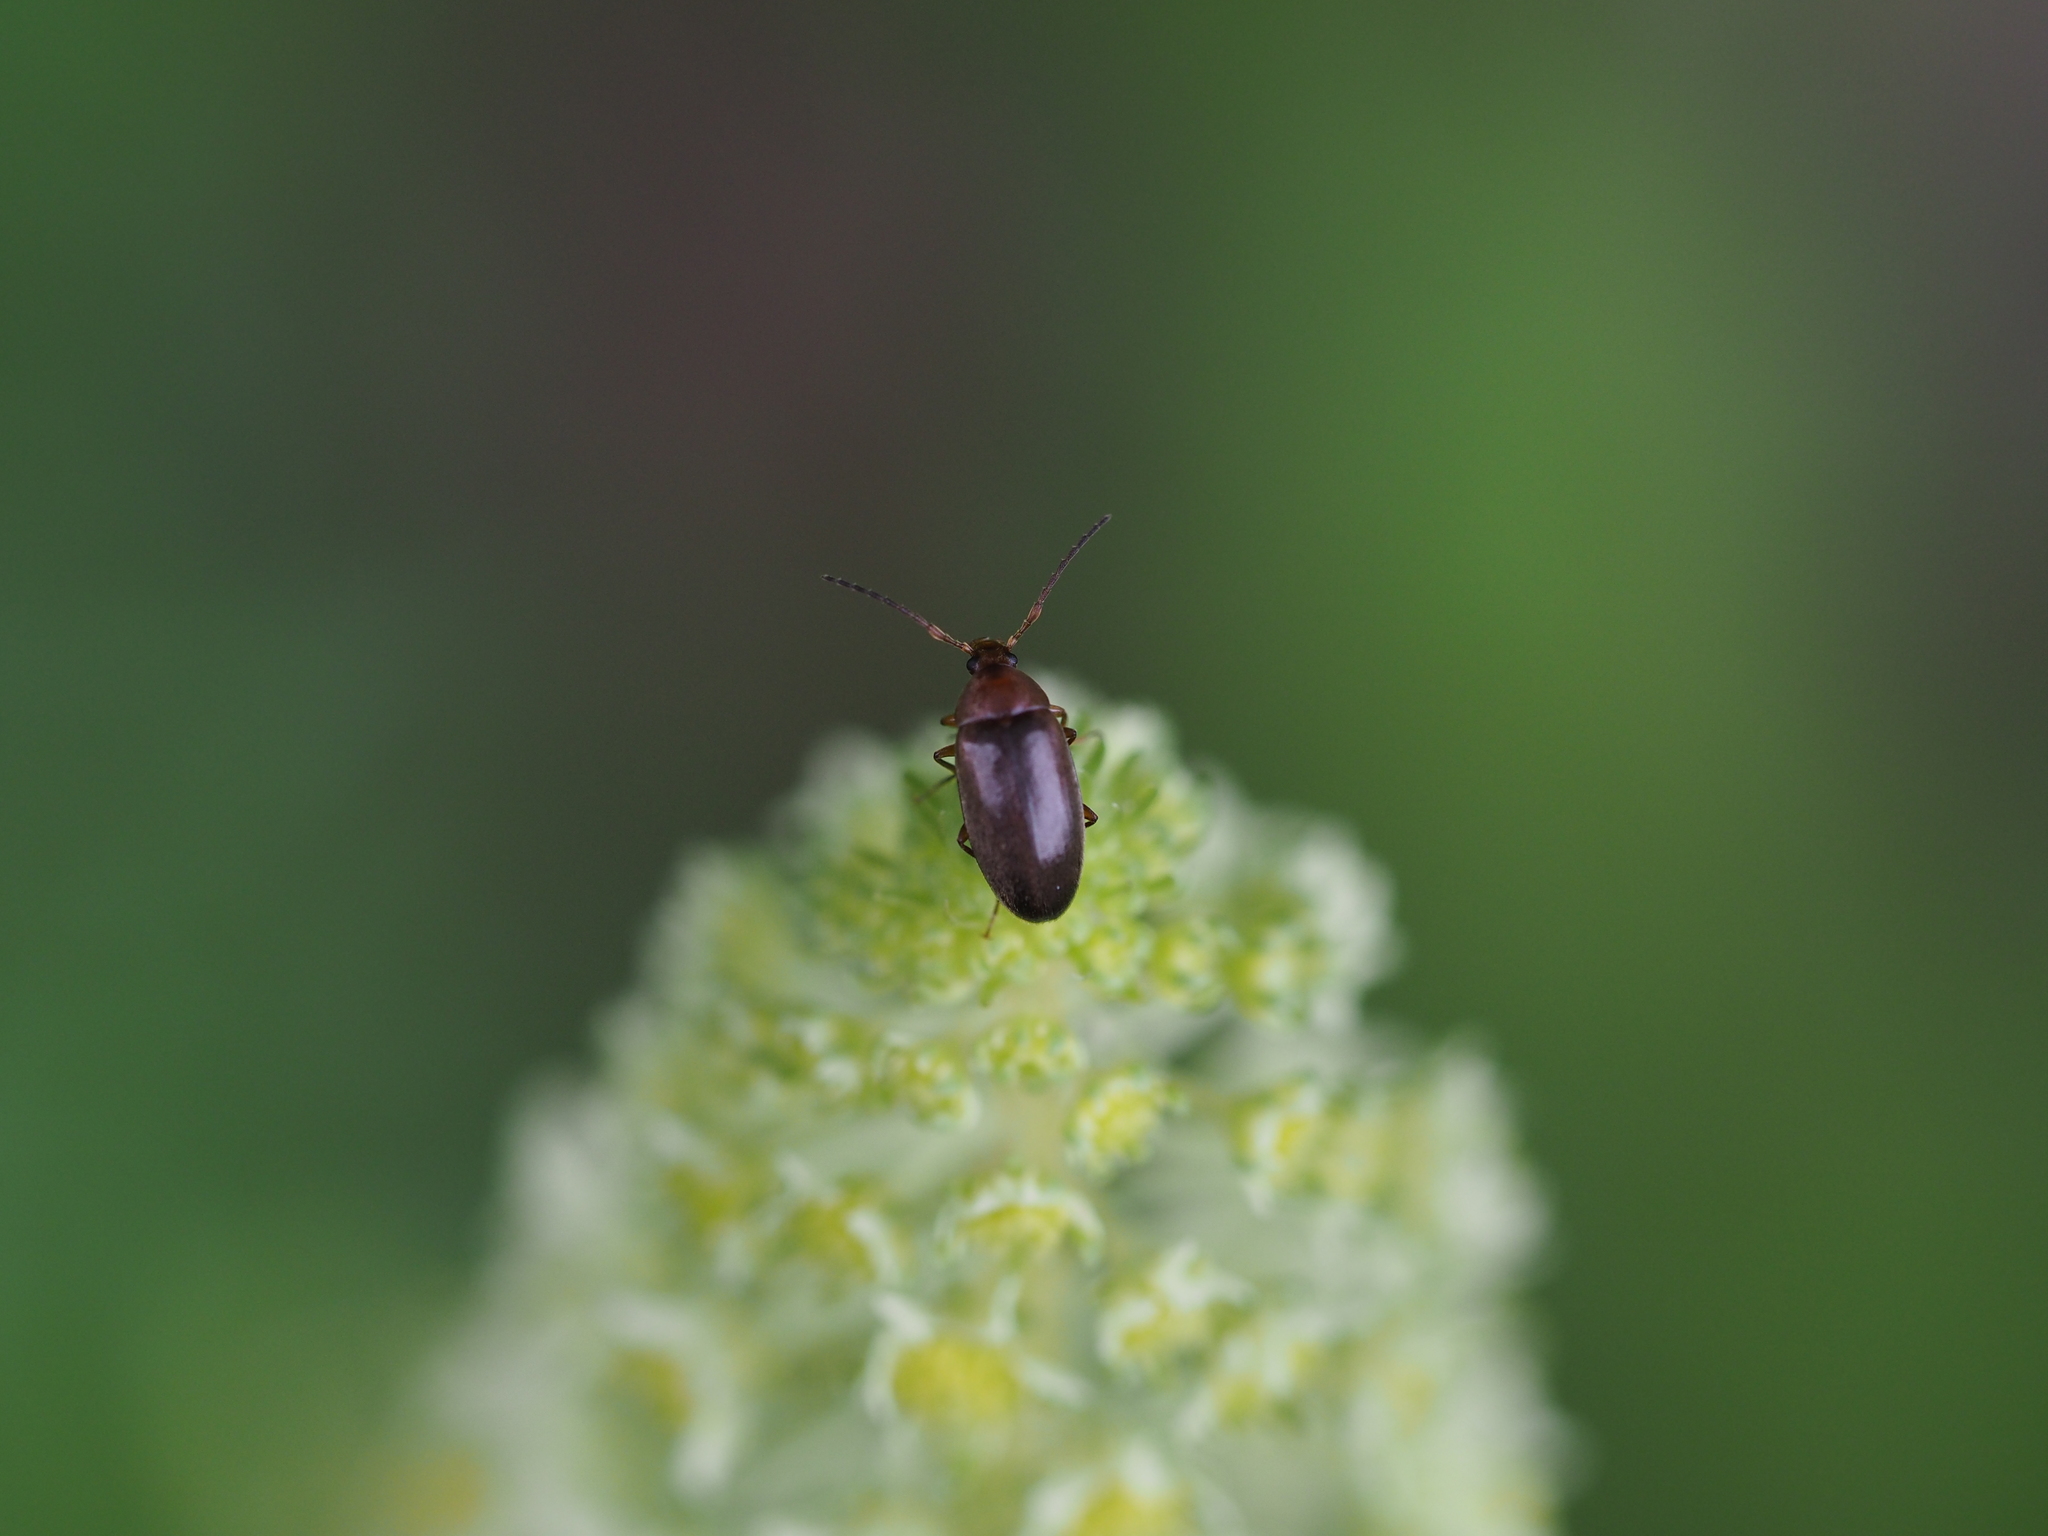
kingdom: Animalia
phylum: Arthropoda
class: Insecta
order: Coleoptera
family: Tenebrionidae
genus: Isomira
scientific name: Isomira
